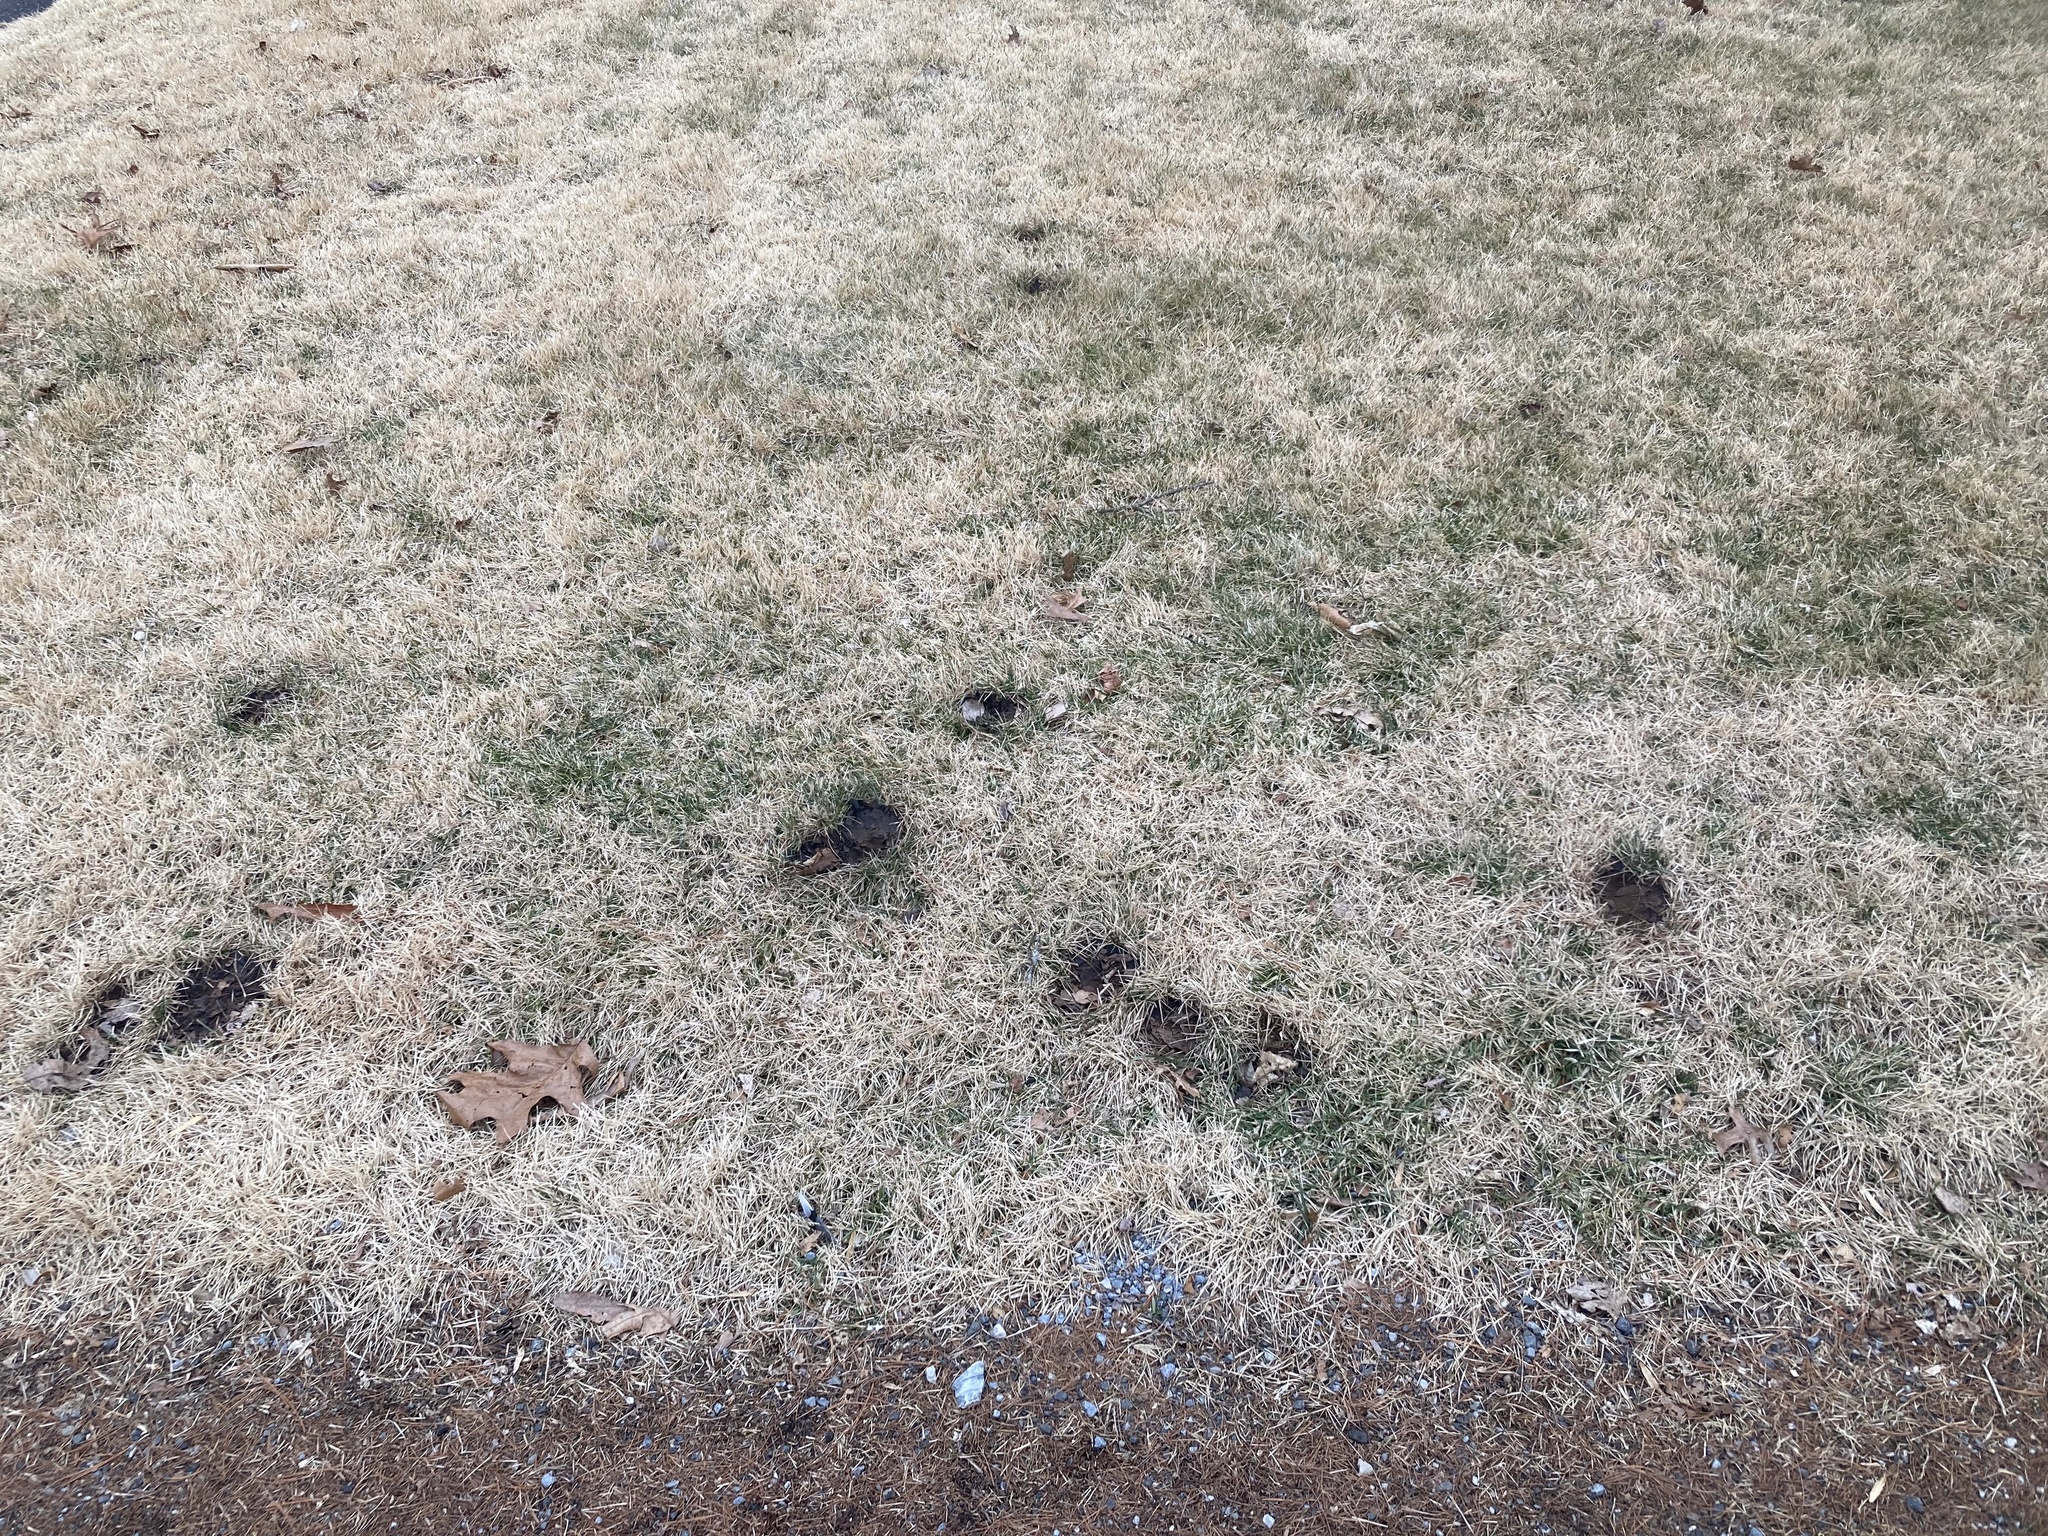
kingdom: Fungi
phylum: Basidiomycota
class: Agaricomycetes
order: Boletales
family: Sclerodermataceae
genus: Scleroderma
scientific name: Scleroderma polyrhizum
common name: Many-rooted earthball
